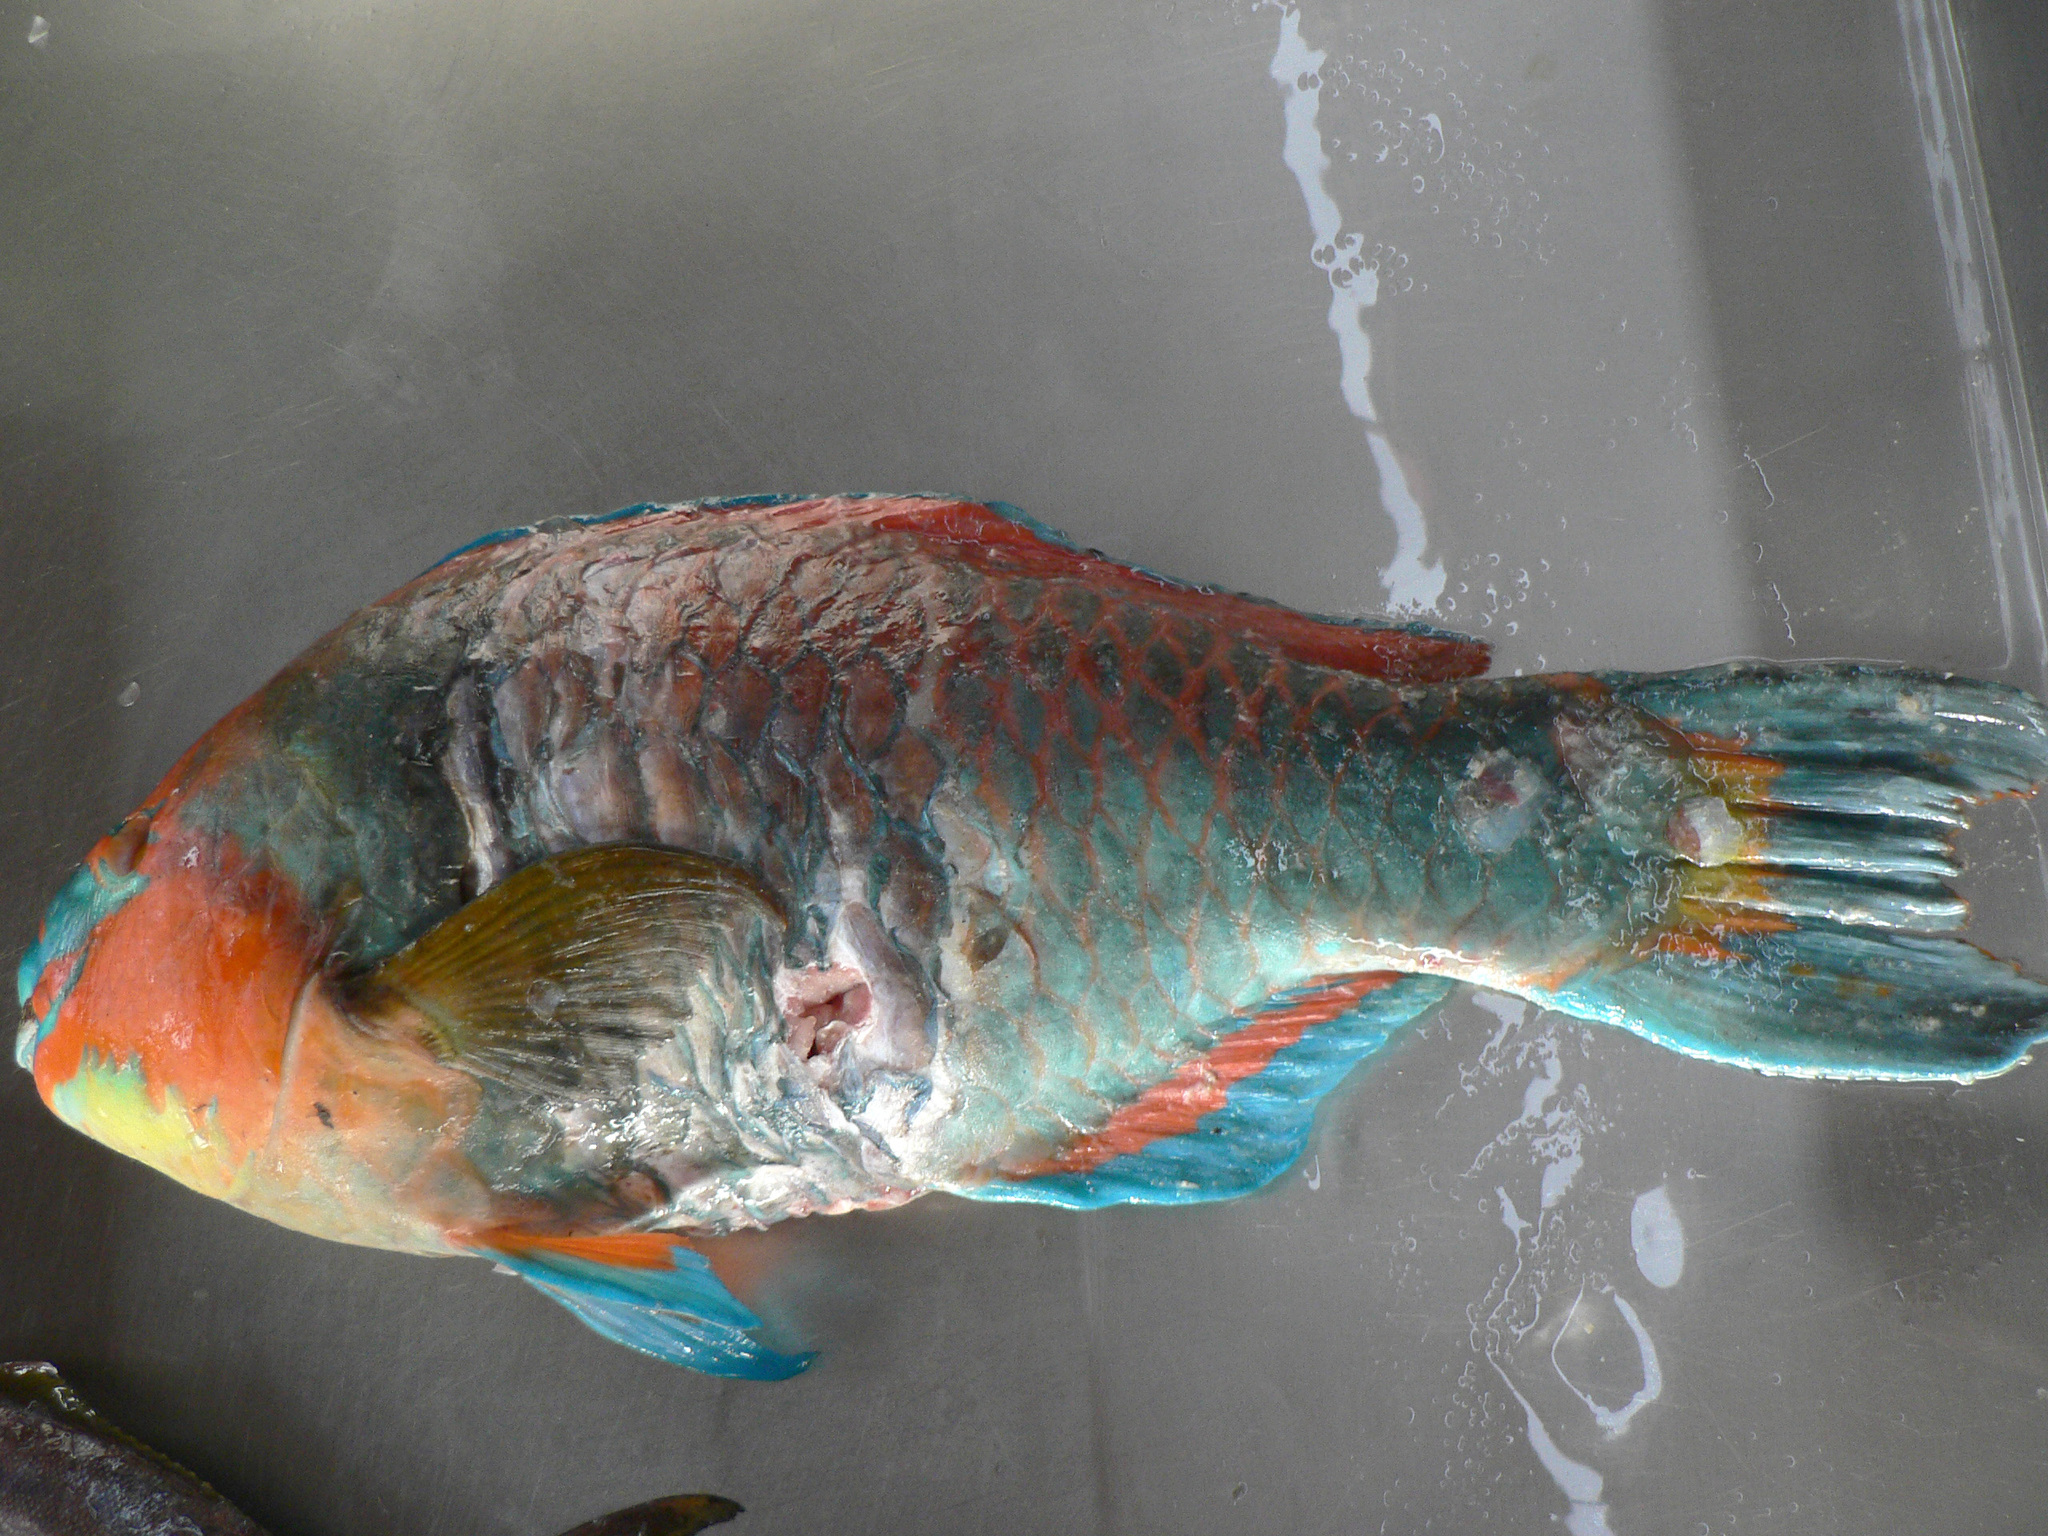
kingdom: Animalia
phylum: Chordata
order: Perciformes
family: Scaridae
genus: Scarus
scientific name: Scarus hoefleri
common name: Guinean parrotfish
